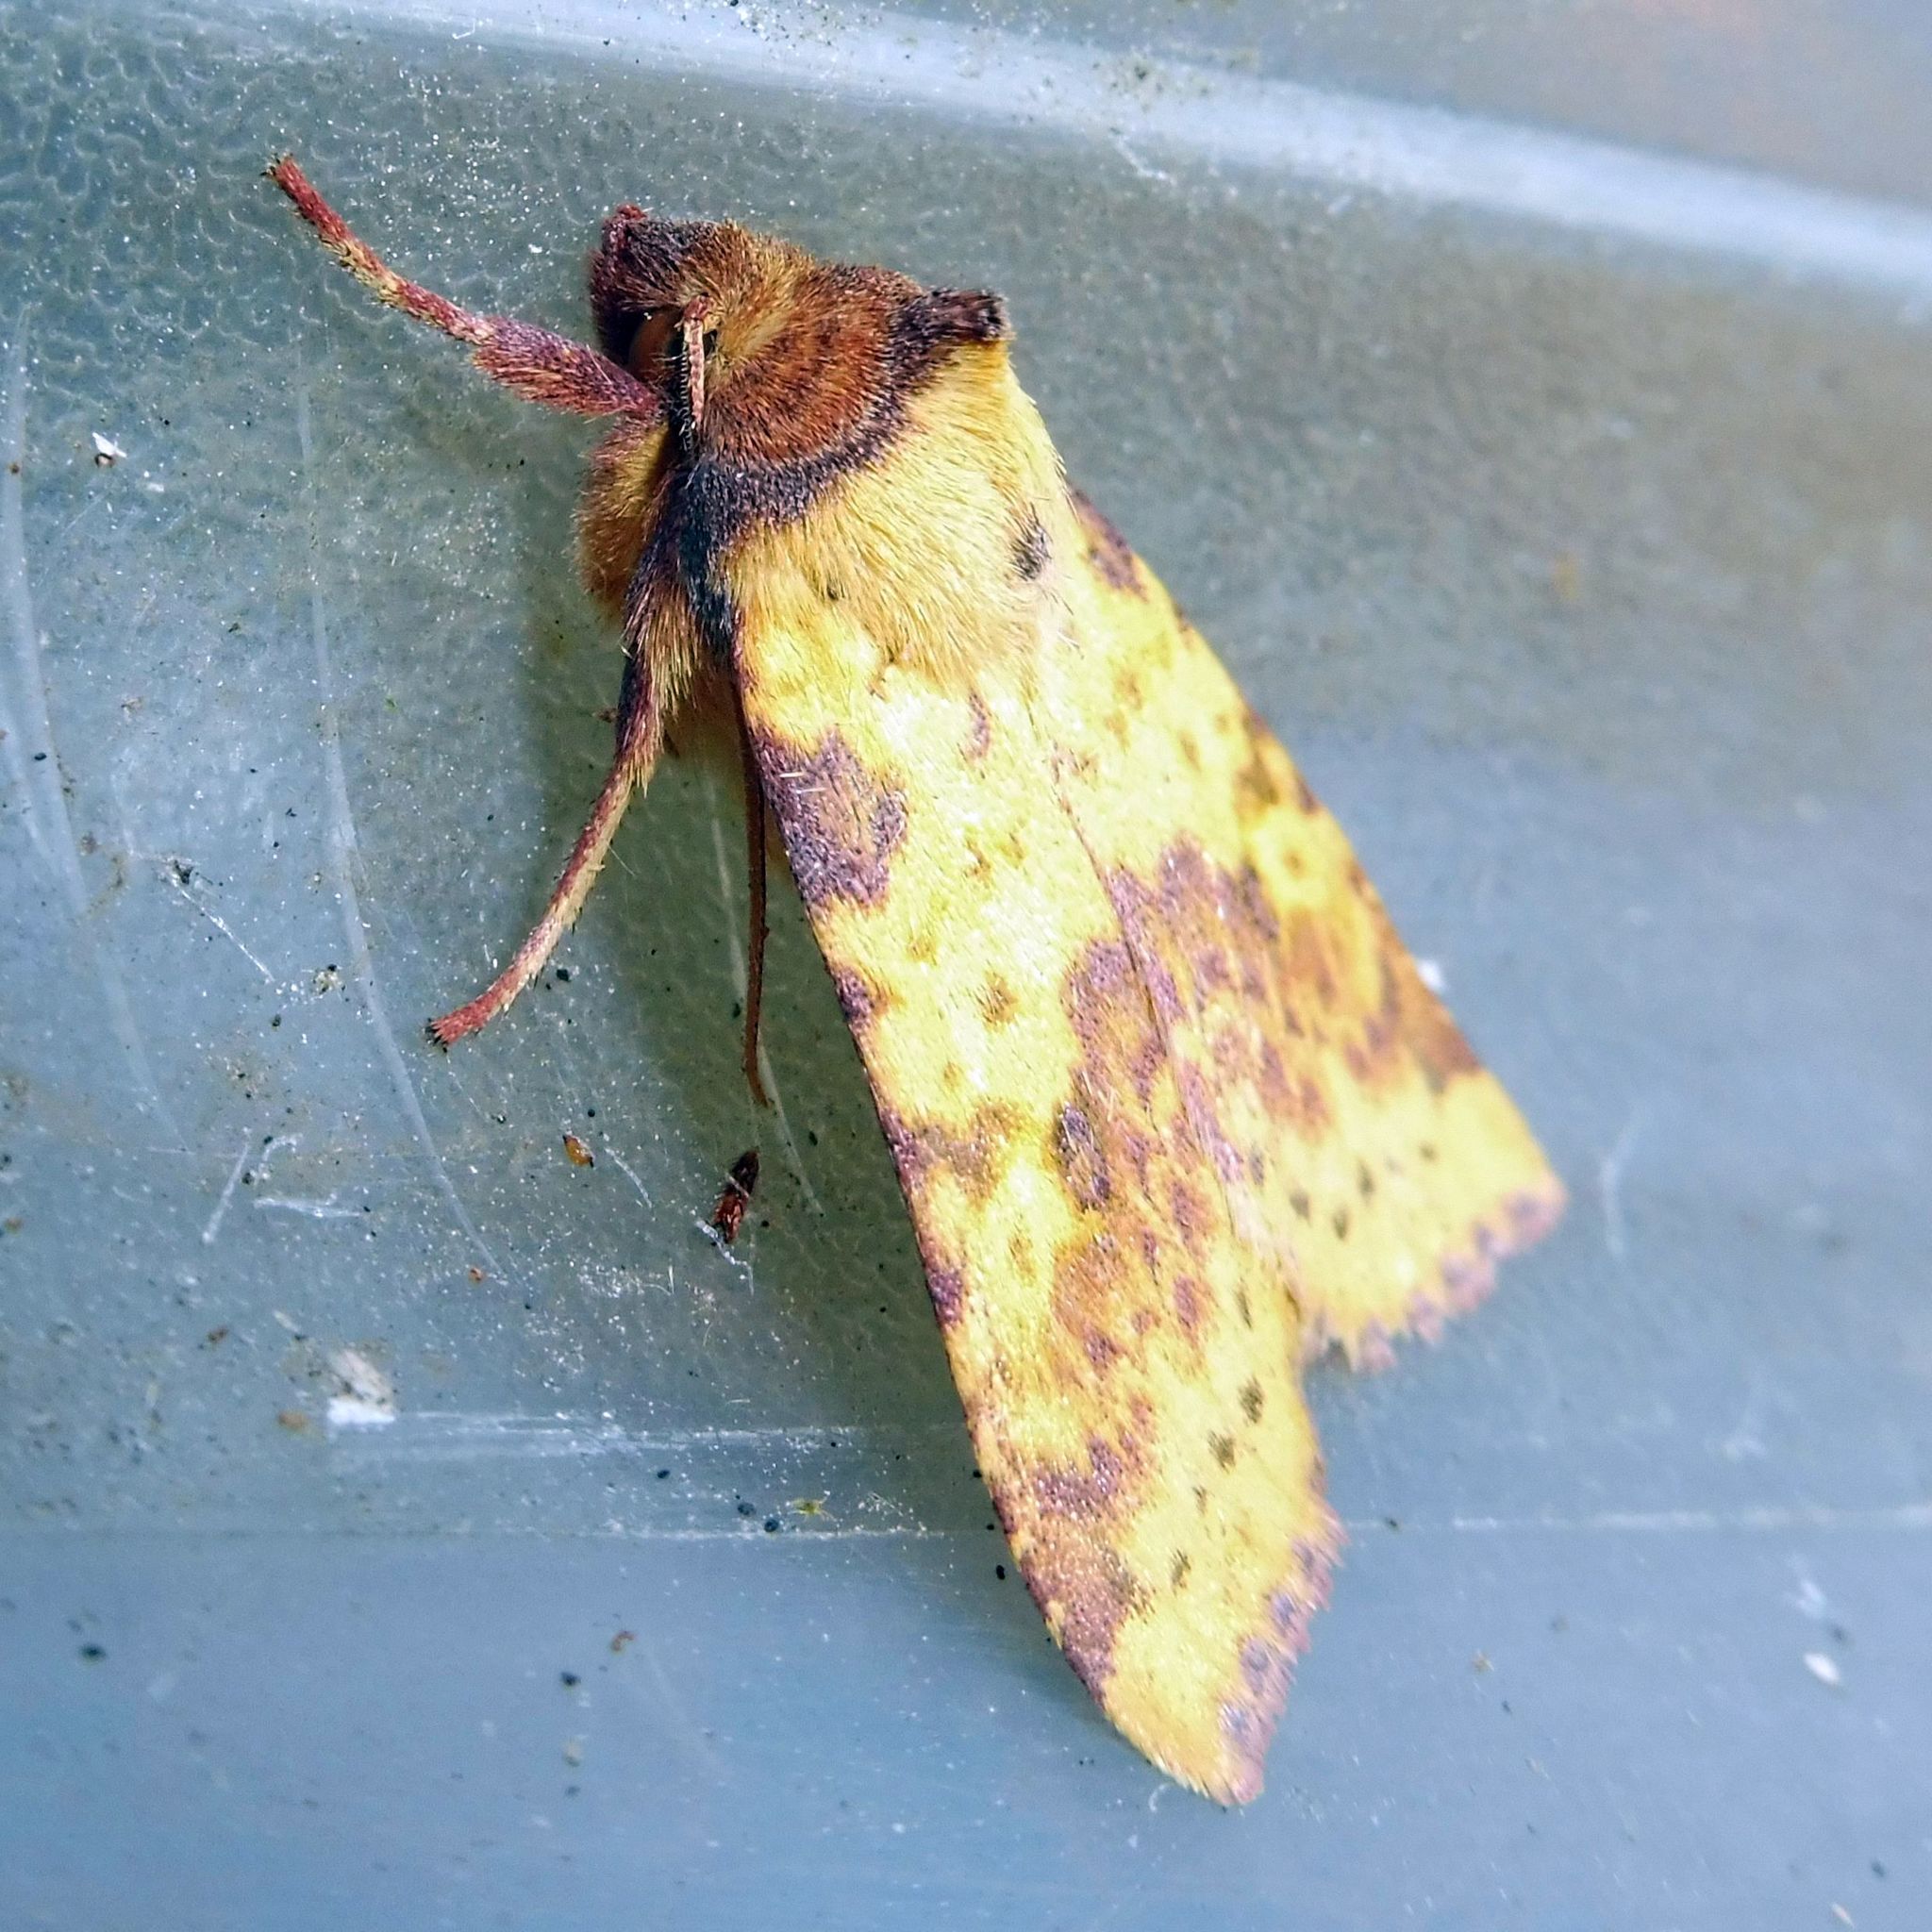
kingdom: Animalia
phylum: Arthropoda
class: Insecta
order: Lepidoptera
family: Noctuidae
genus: Xanthia
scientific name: Xanthia togata
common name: Pink-barred sallow
